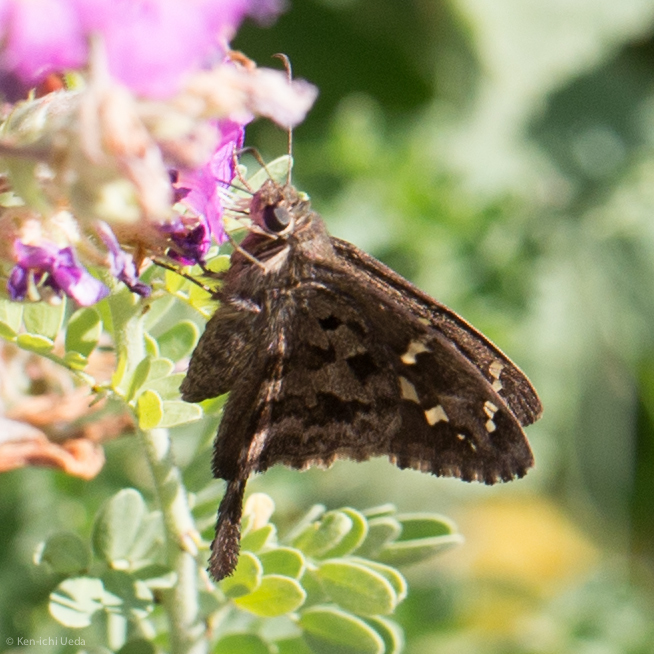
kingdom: Animalia
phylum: Arthropoda
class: Insecta
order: Lepidoptera
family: Hesperiidae
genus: Thorybes
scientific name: Thorybes
